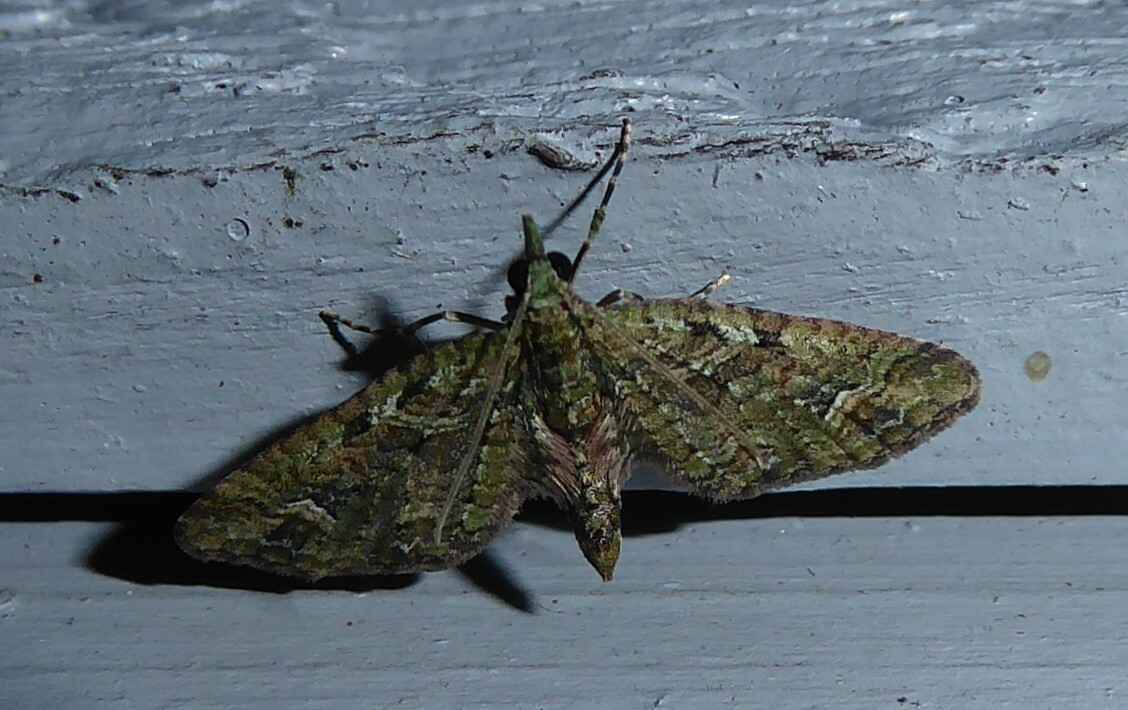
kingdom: Animalia
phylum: Arthropoda
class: Insecta
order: Lepidoptera
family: Geometridae
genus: Idaea
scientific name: Idaea mutanda
